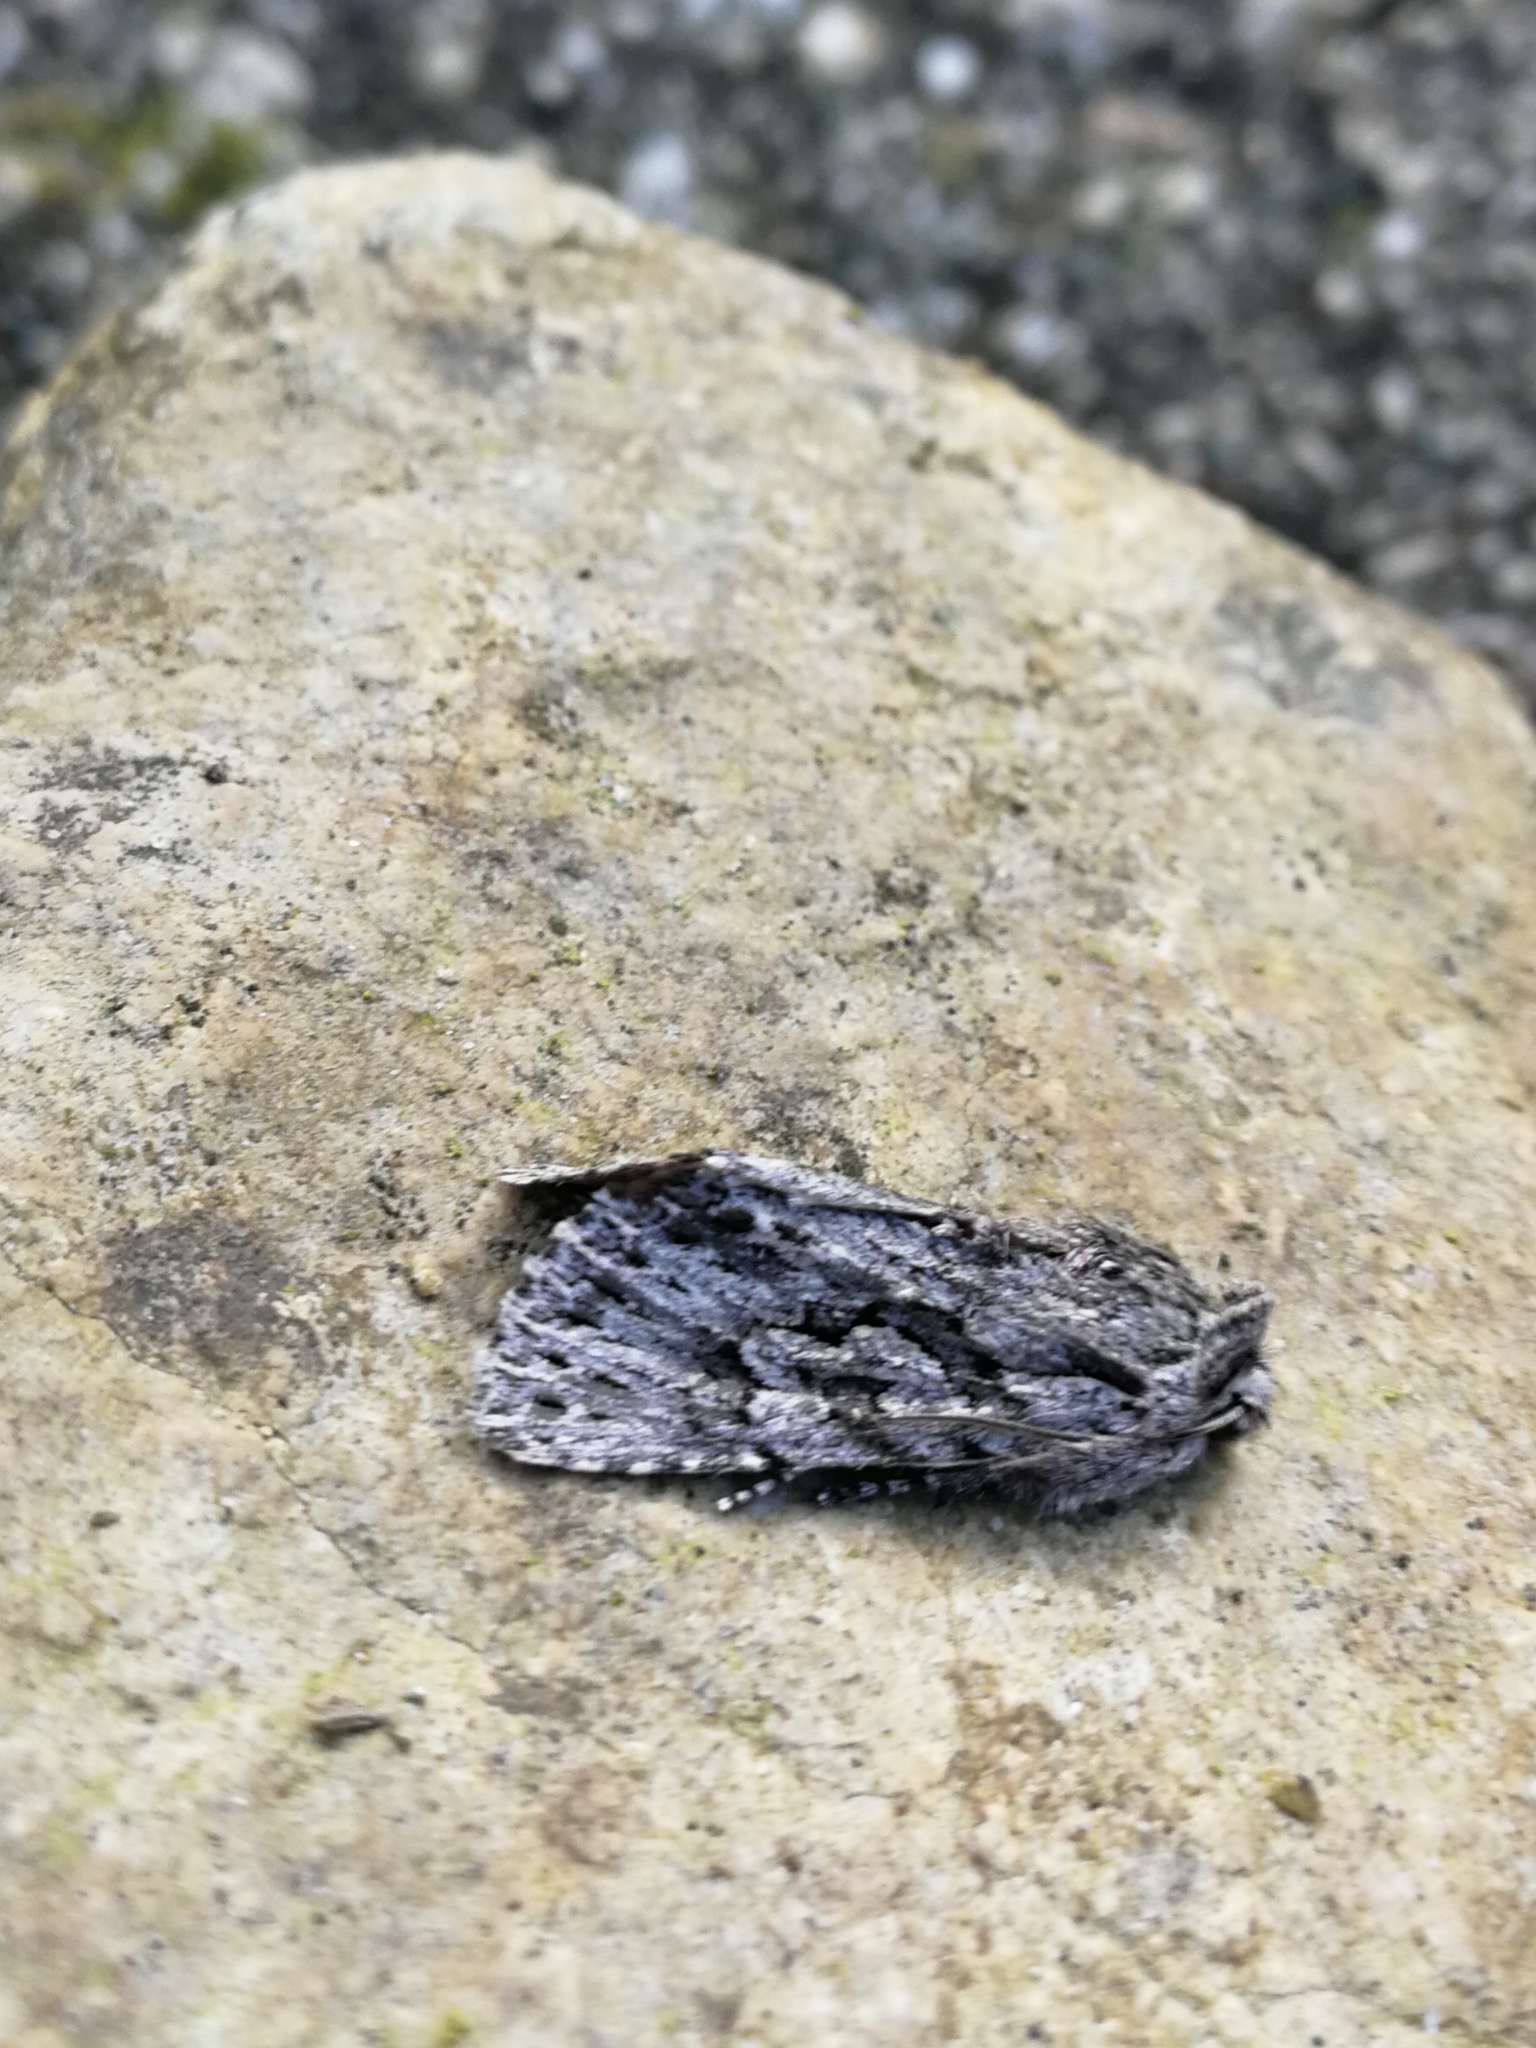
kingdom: Animalia
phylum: Arthropoda
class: Insecta
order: Lepidoptera
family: Noctuidae
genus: Xylocampa
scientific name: Xylocampa areola
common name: Early grey
